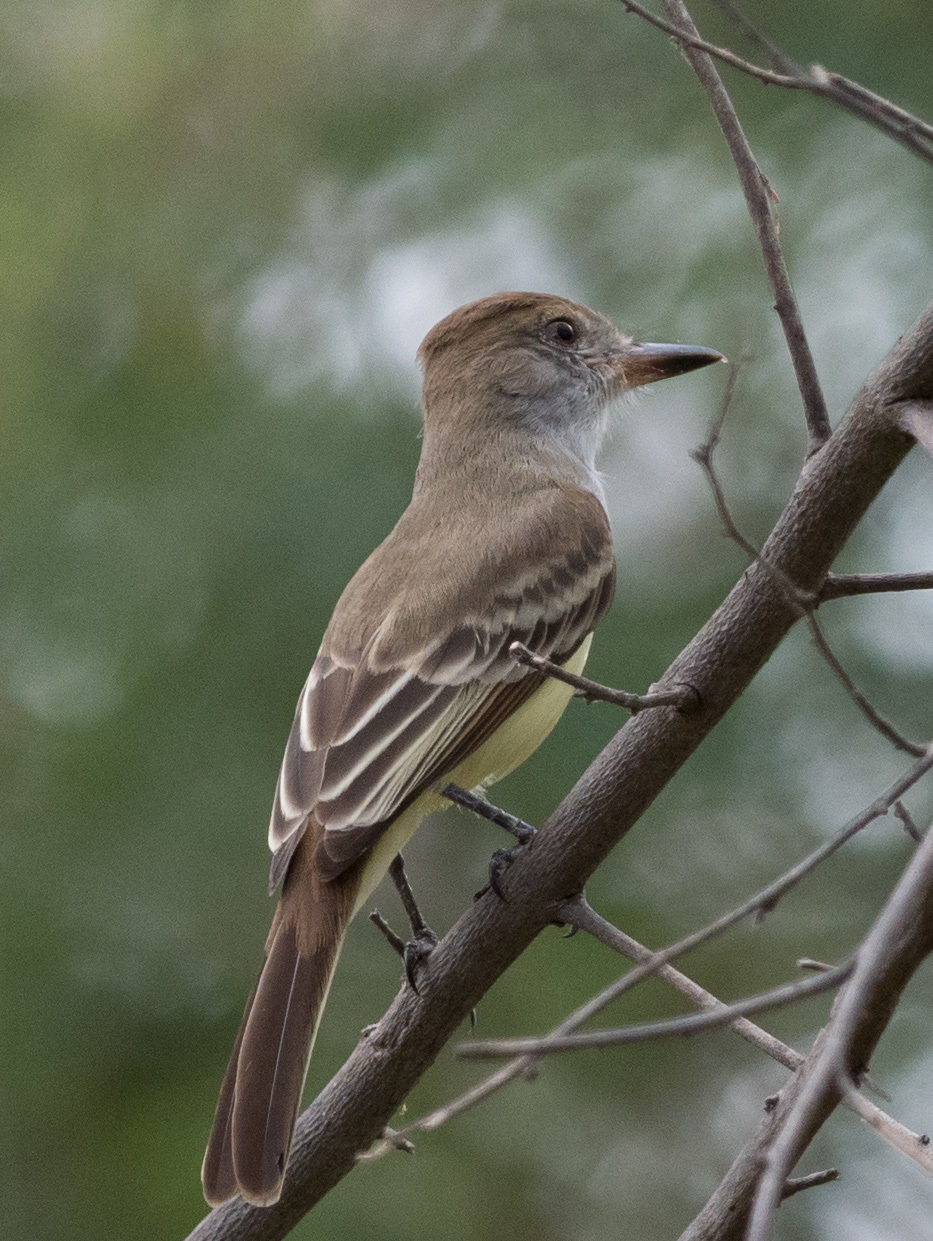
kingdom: Animalia
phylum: Chordata
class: Aves
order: Passeriformes
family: Tyrannidae
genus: Myiarchus
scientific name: Myiarchus tyrannulus
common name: Brown-crested flycatcher
